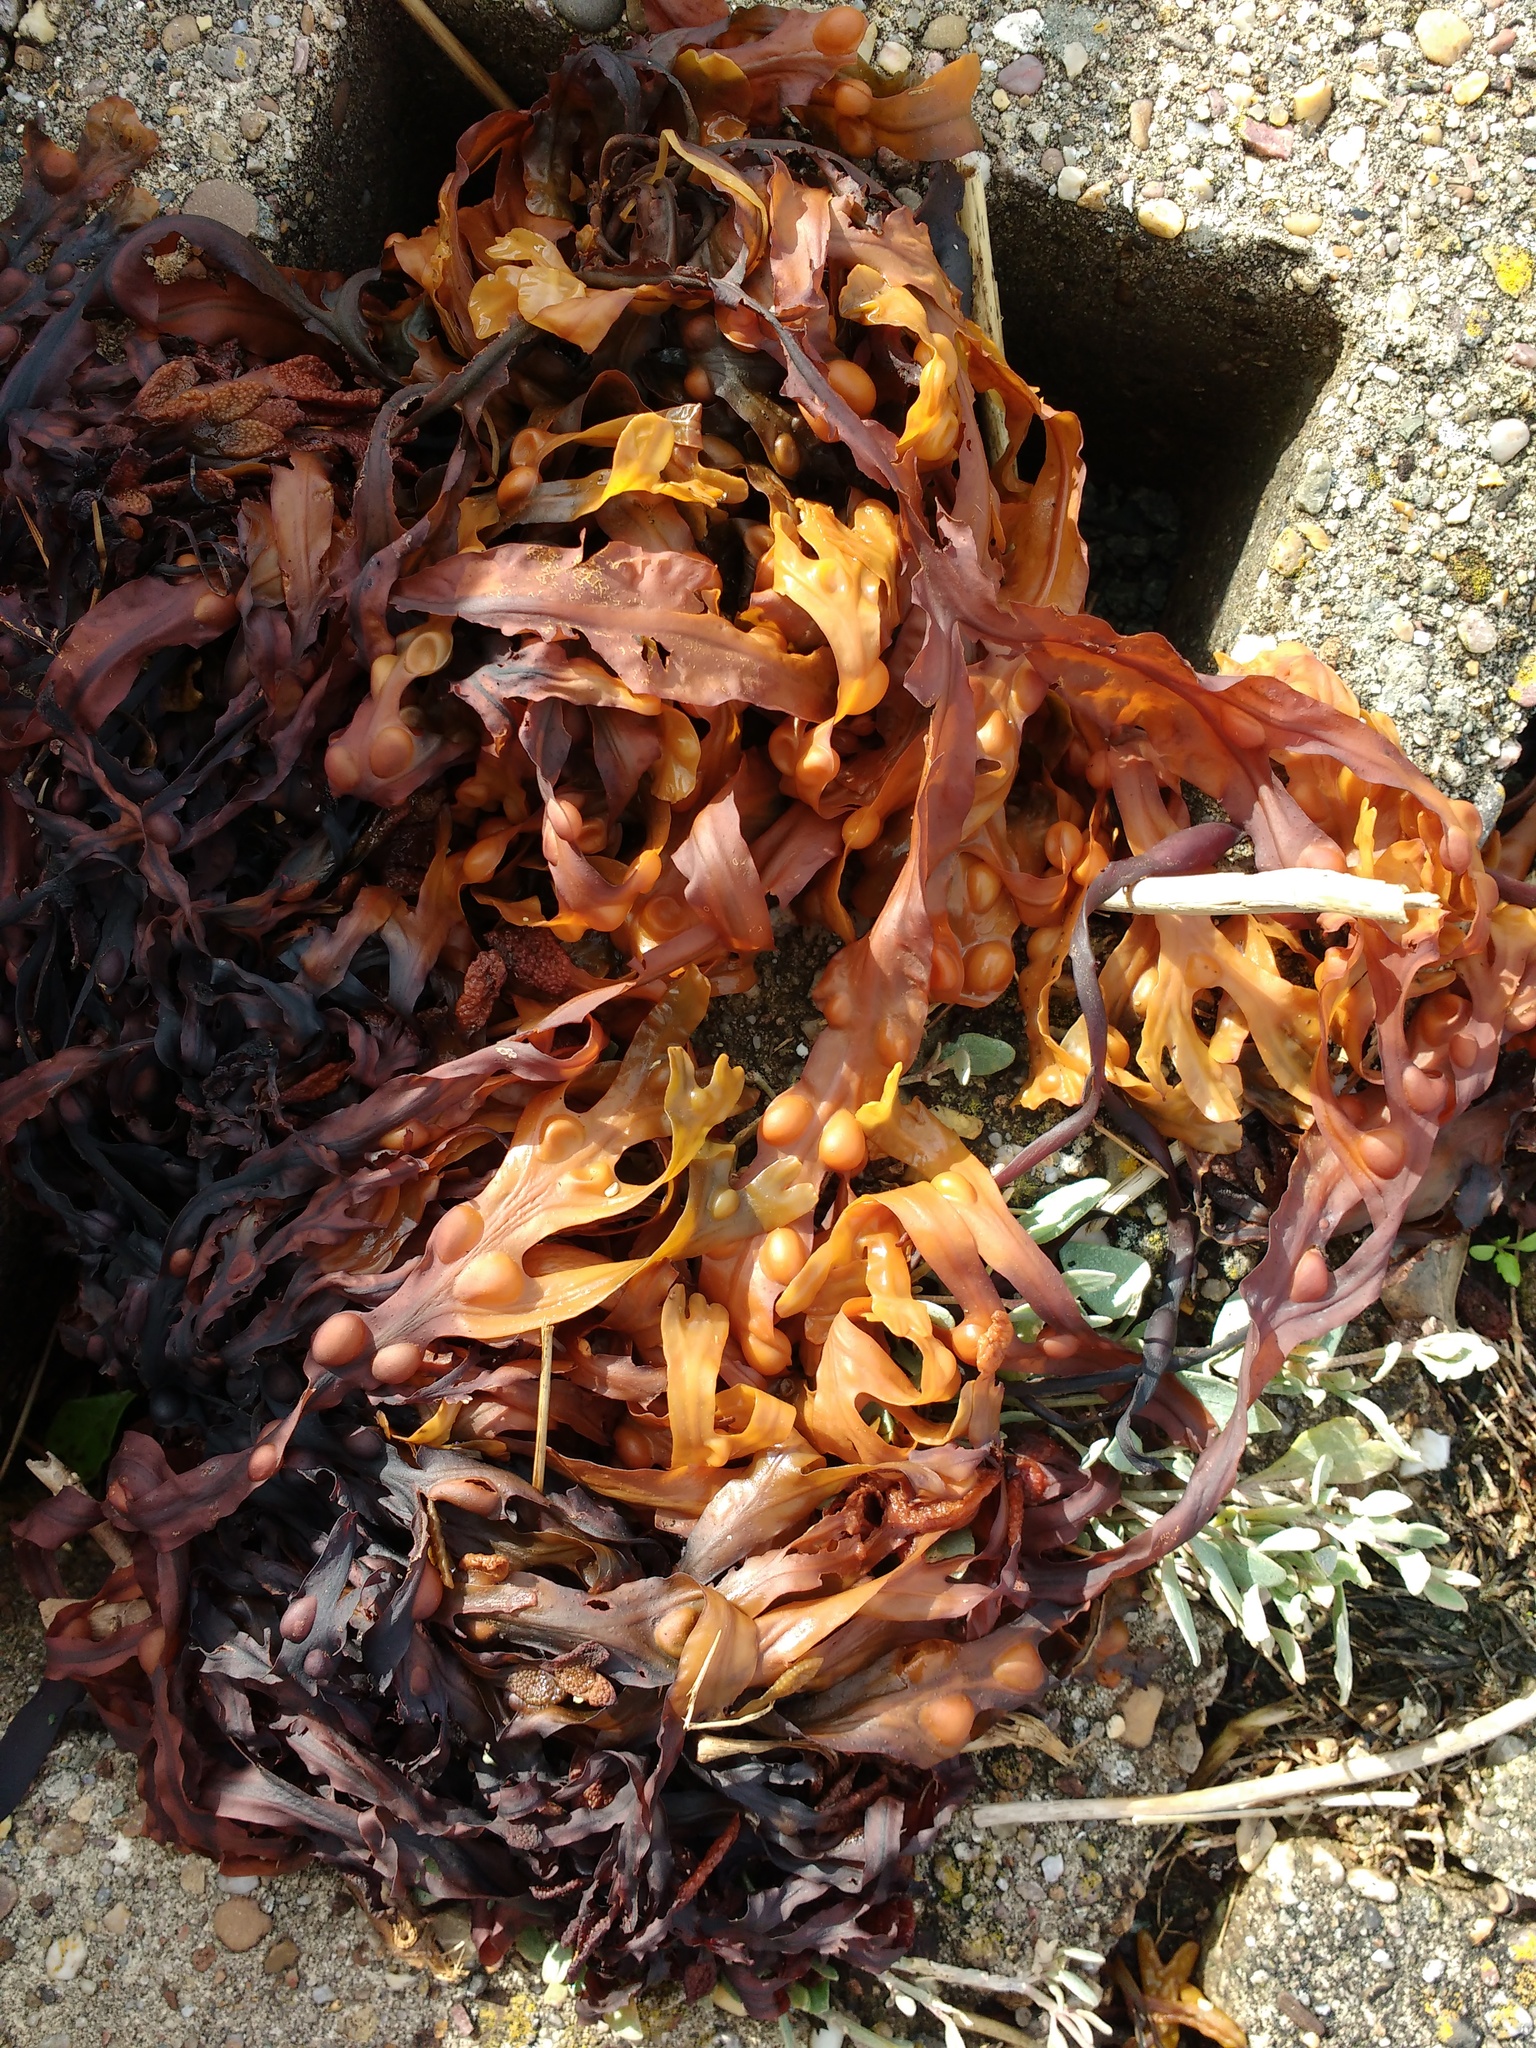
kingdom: Chromista
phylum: Ochrophyta
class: Phaeophyceae
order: Fucales
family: Fucaceae
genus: Fucus
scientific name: Fucus vesiculosus
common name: Bladder wrack
